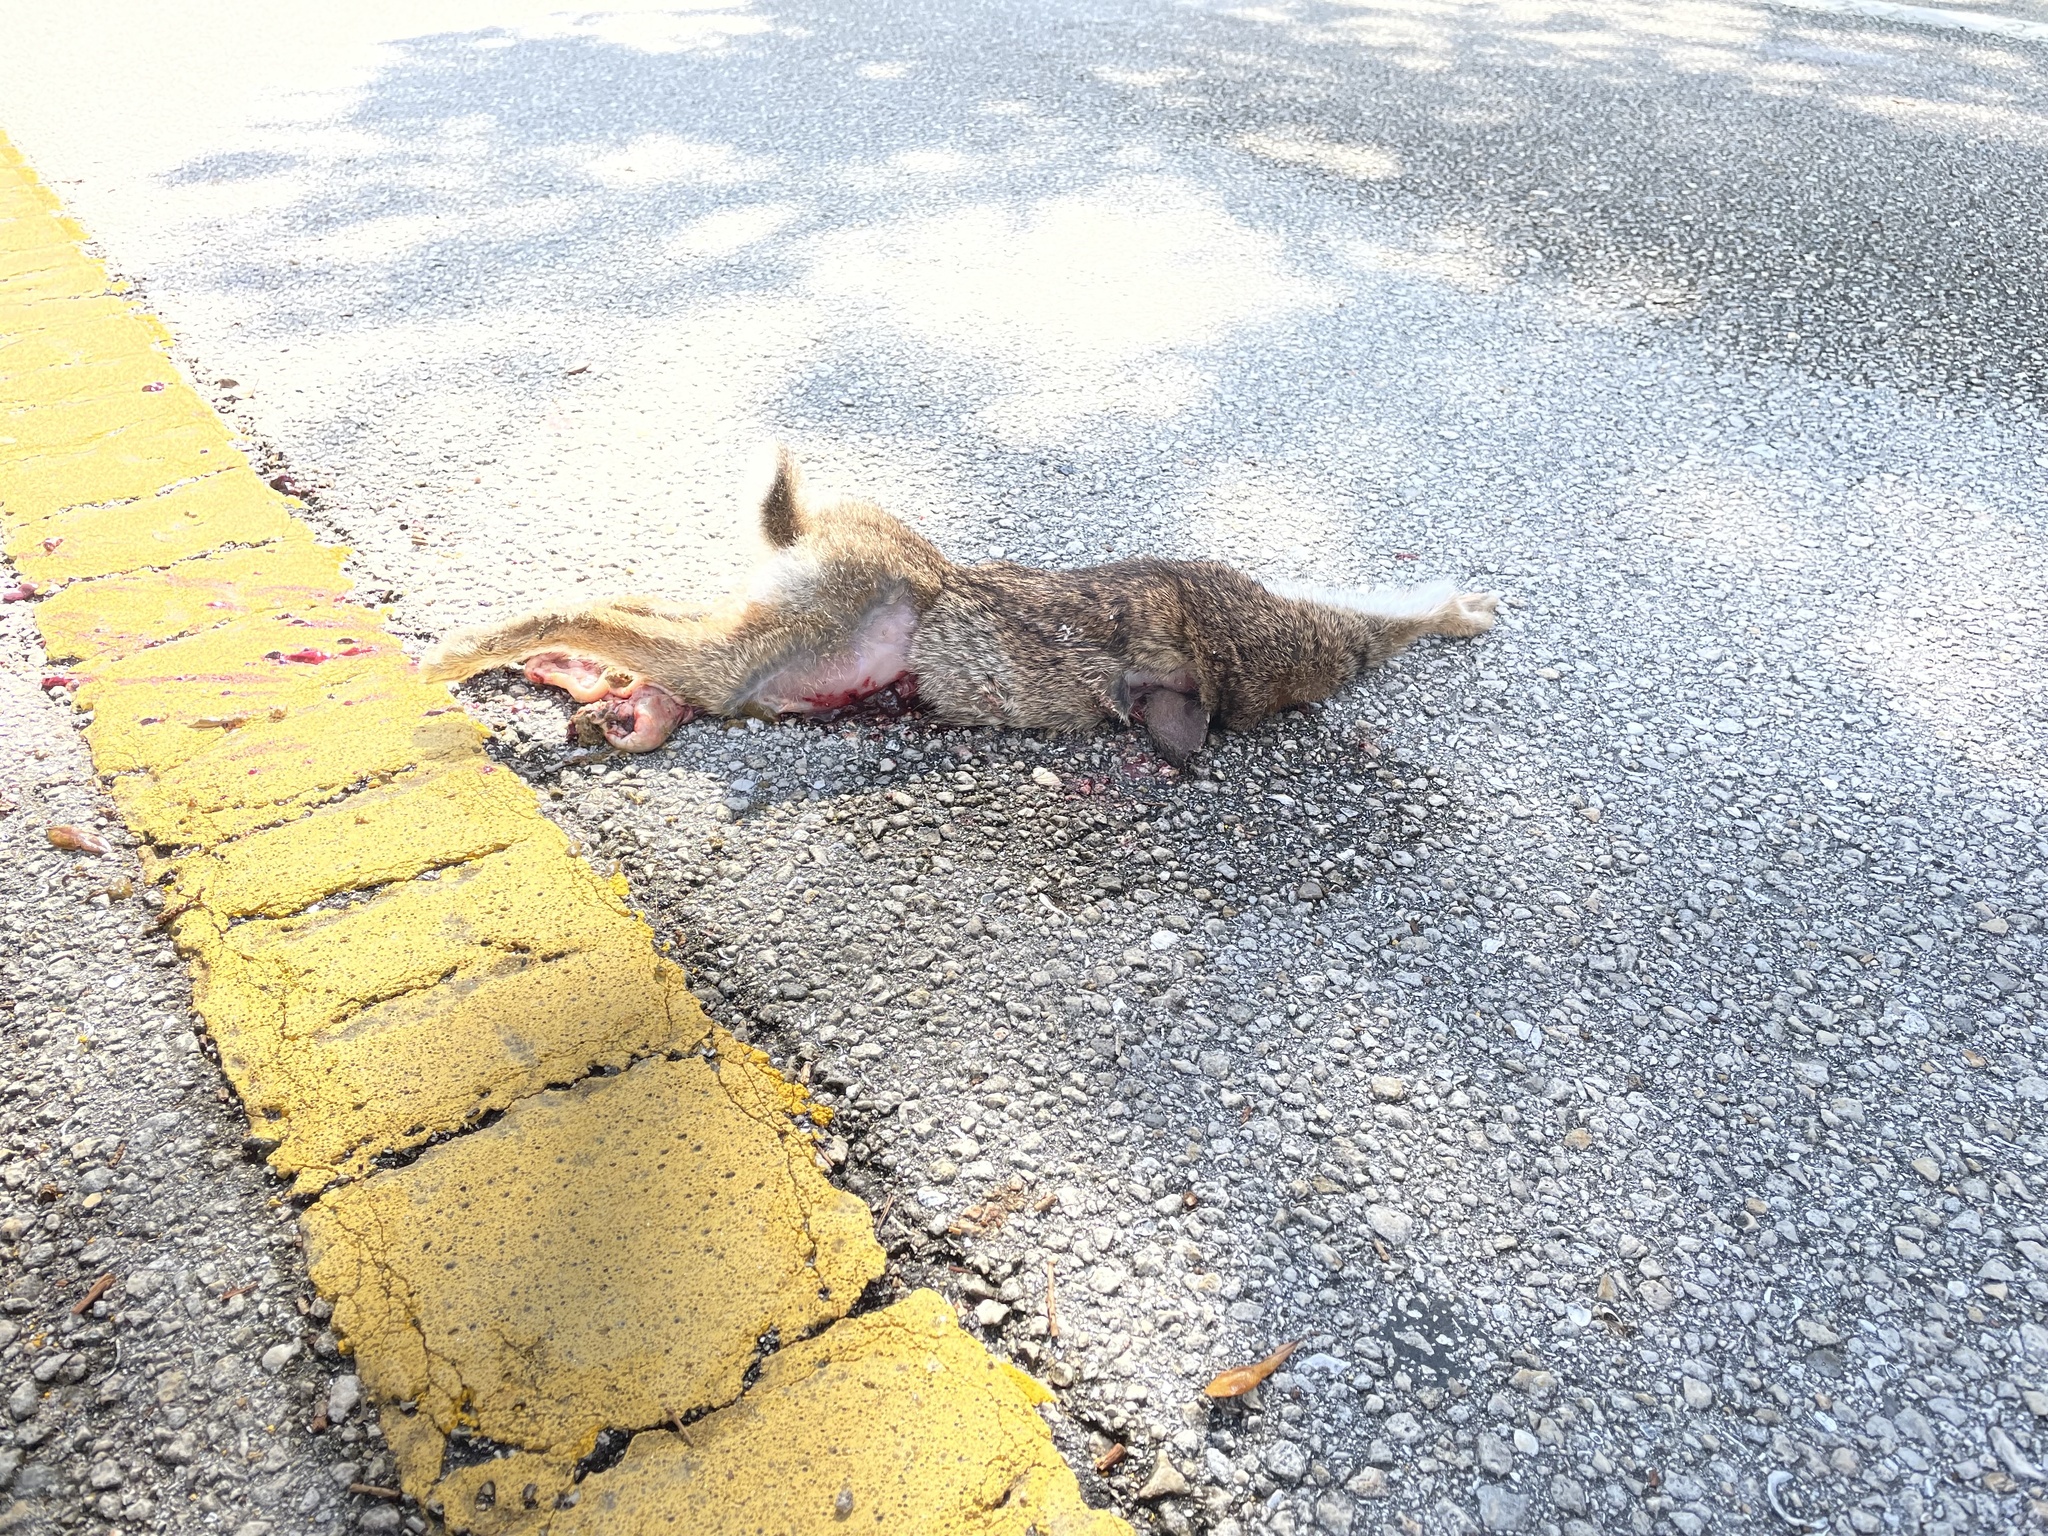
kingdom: Animalia
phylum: Chordata
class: Mammalia
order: Lagomorpha
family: Leporidae
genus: Sylvilagus
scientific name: Sylvilagus floridanus
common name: Eastern cottontail
